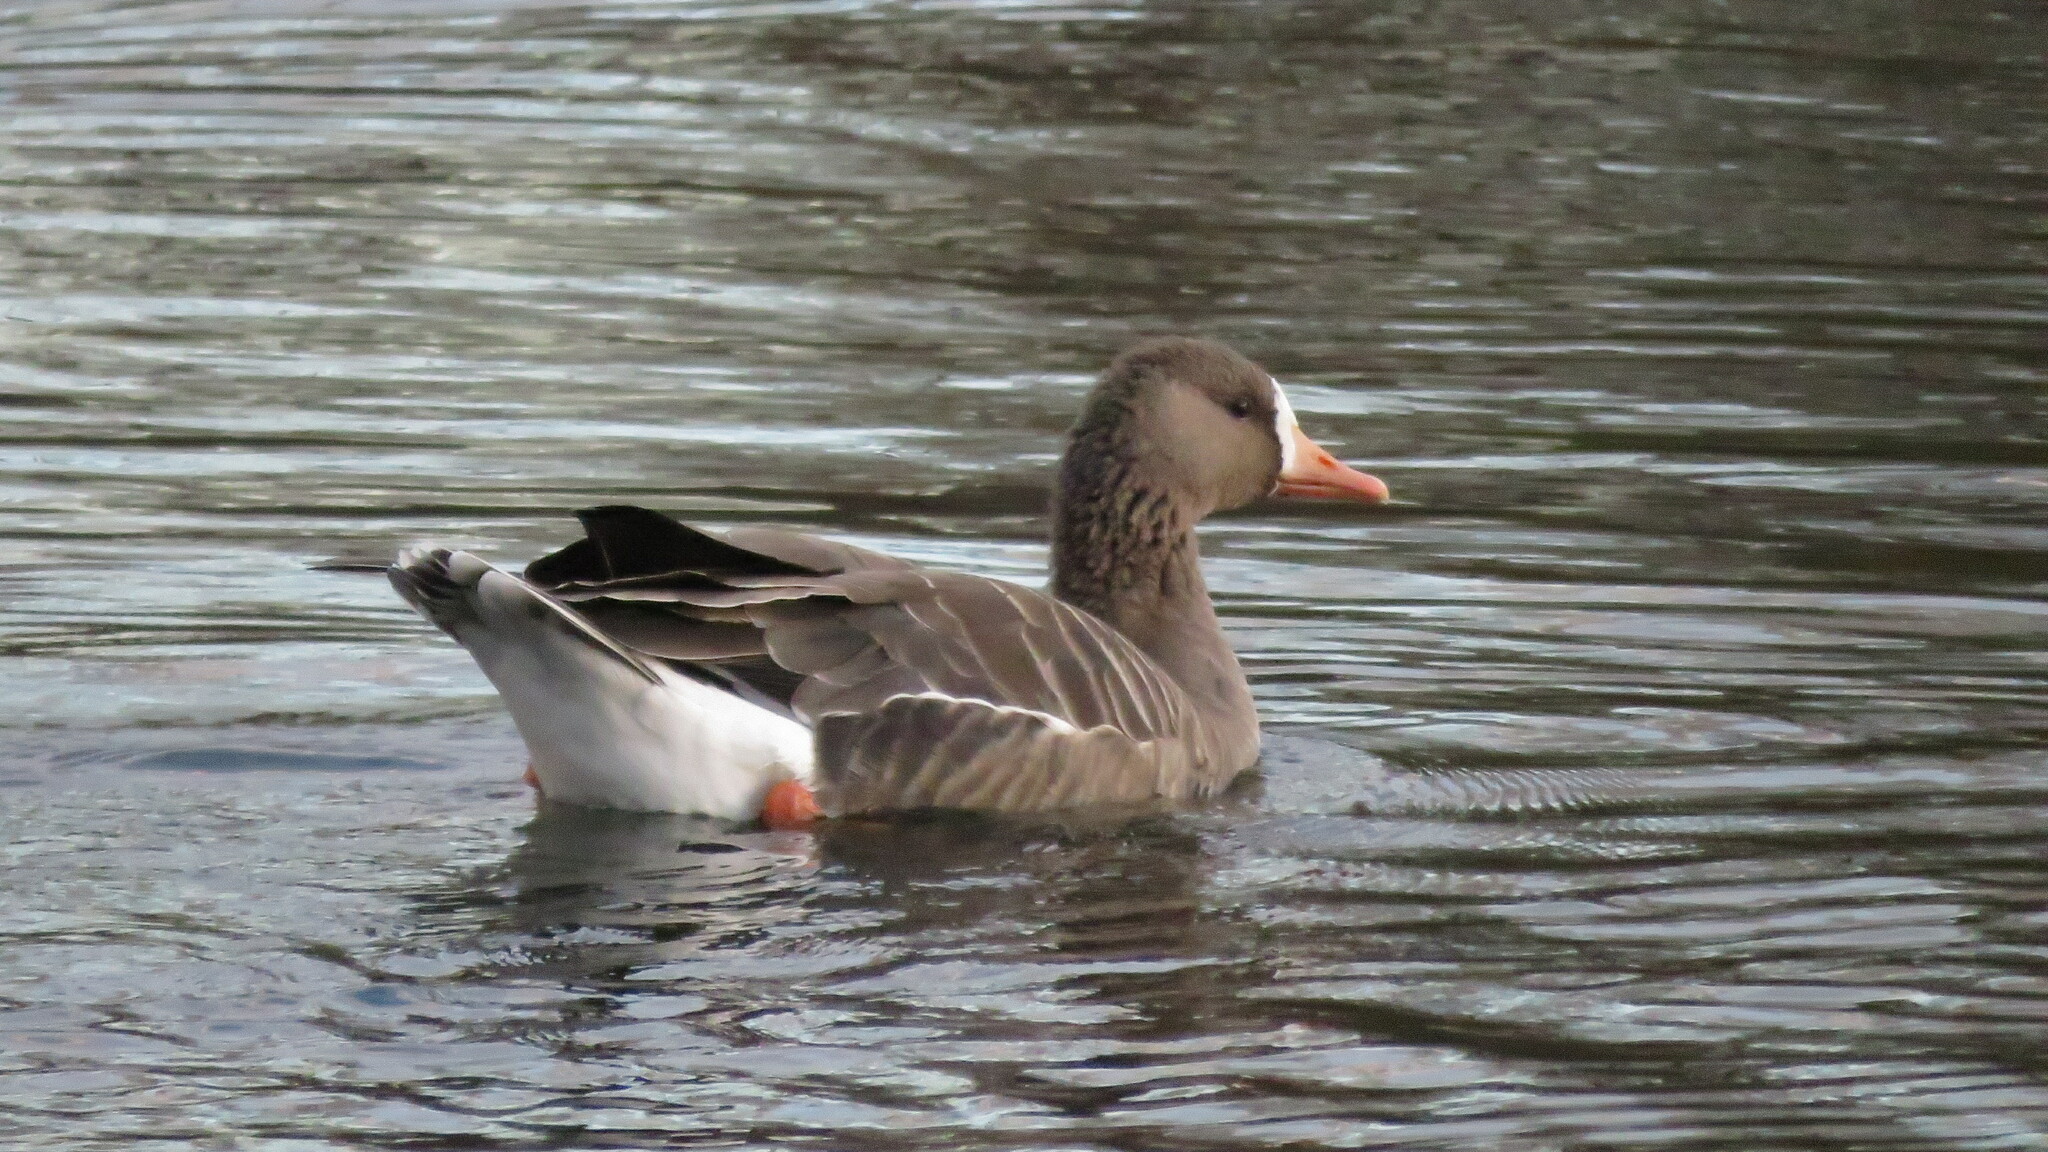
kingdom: Animalia
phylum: Chordata
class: Aves
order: Anseriformes
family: Anatidae
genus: Anser
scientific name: Anser albifrons
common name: Greater white-fronted goose
